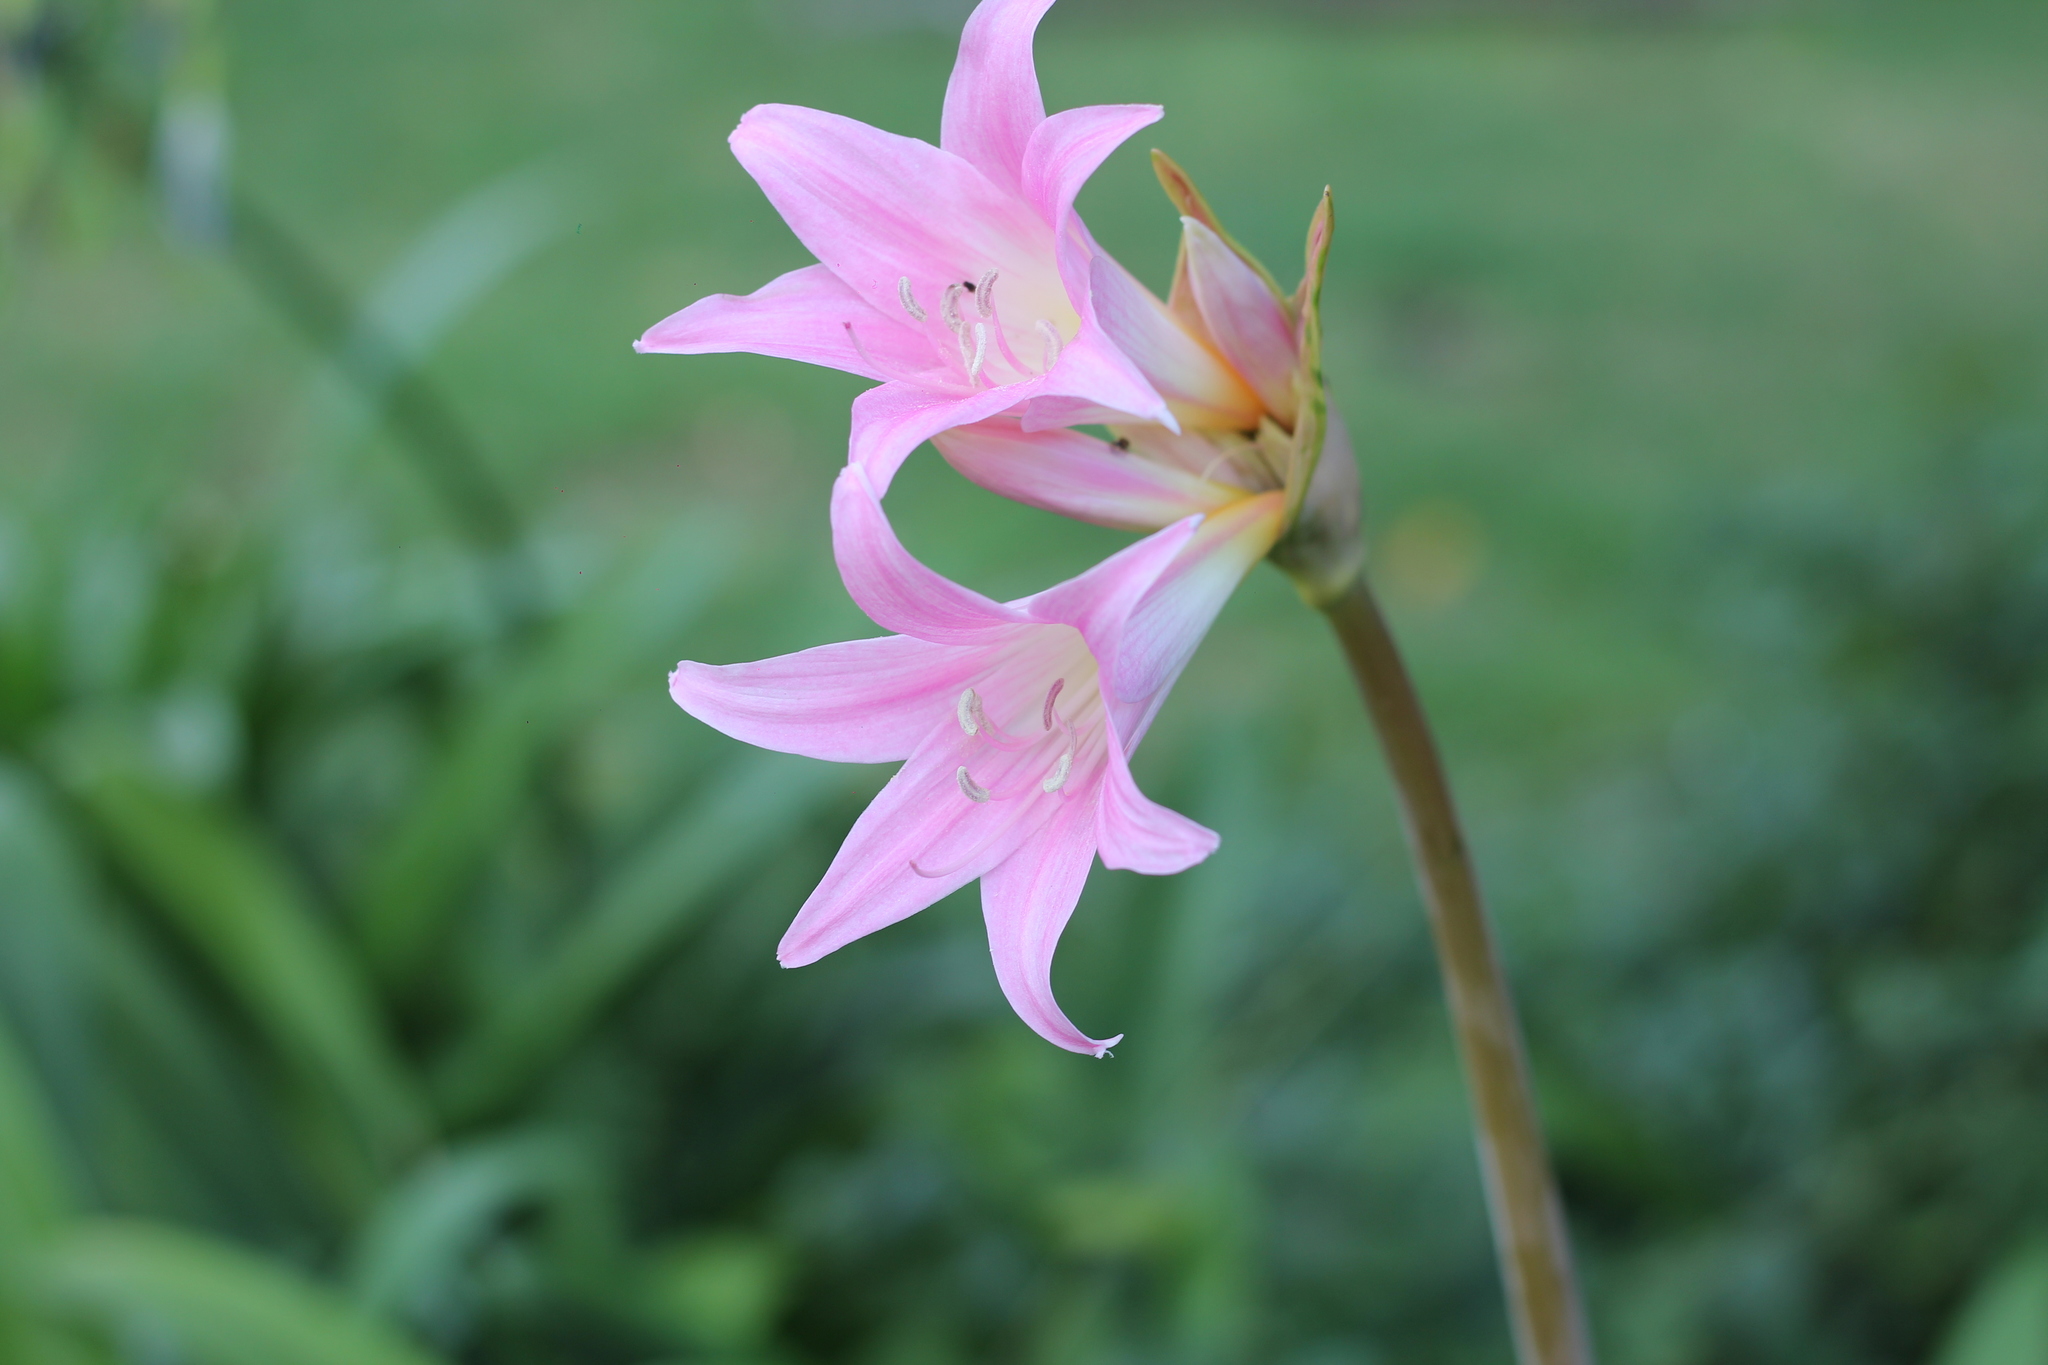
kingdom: Plantae
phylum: Tracheophyta
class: Liliopsida
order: Asparagales
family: Amaryllidaceae
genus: Amaryllis
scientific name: Amaryllis belladonna
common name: Jersey lily
